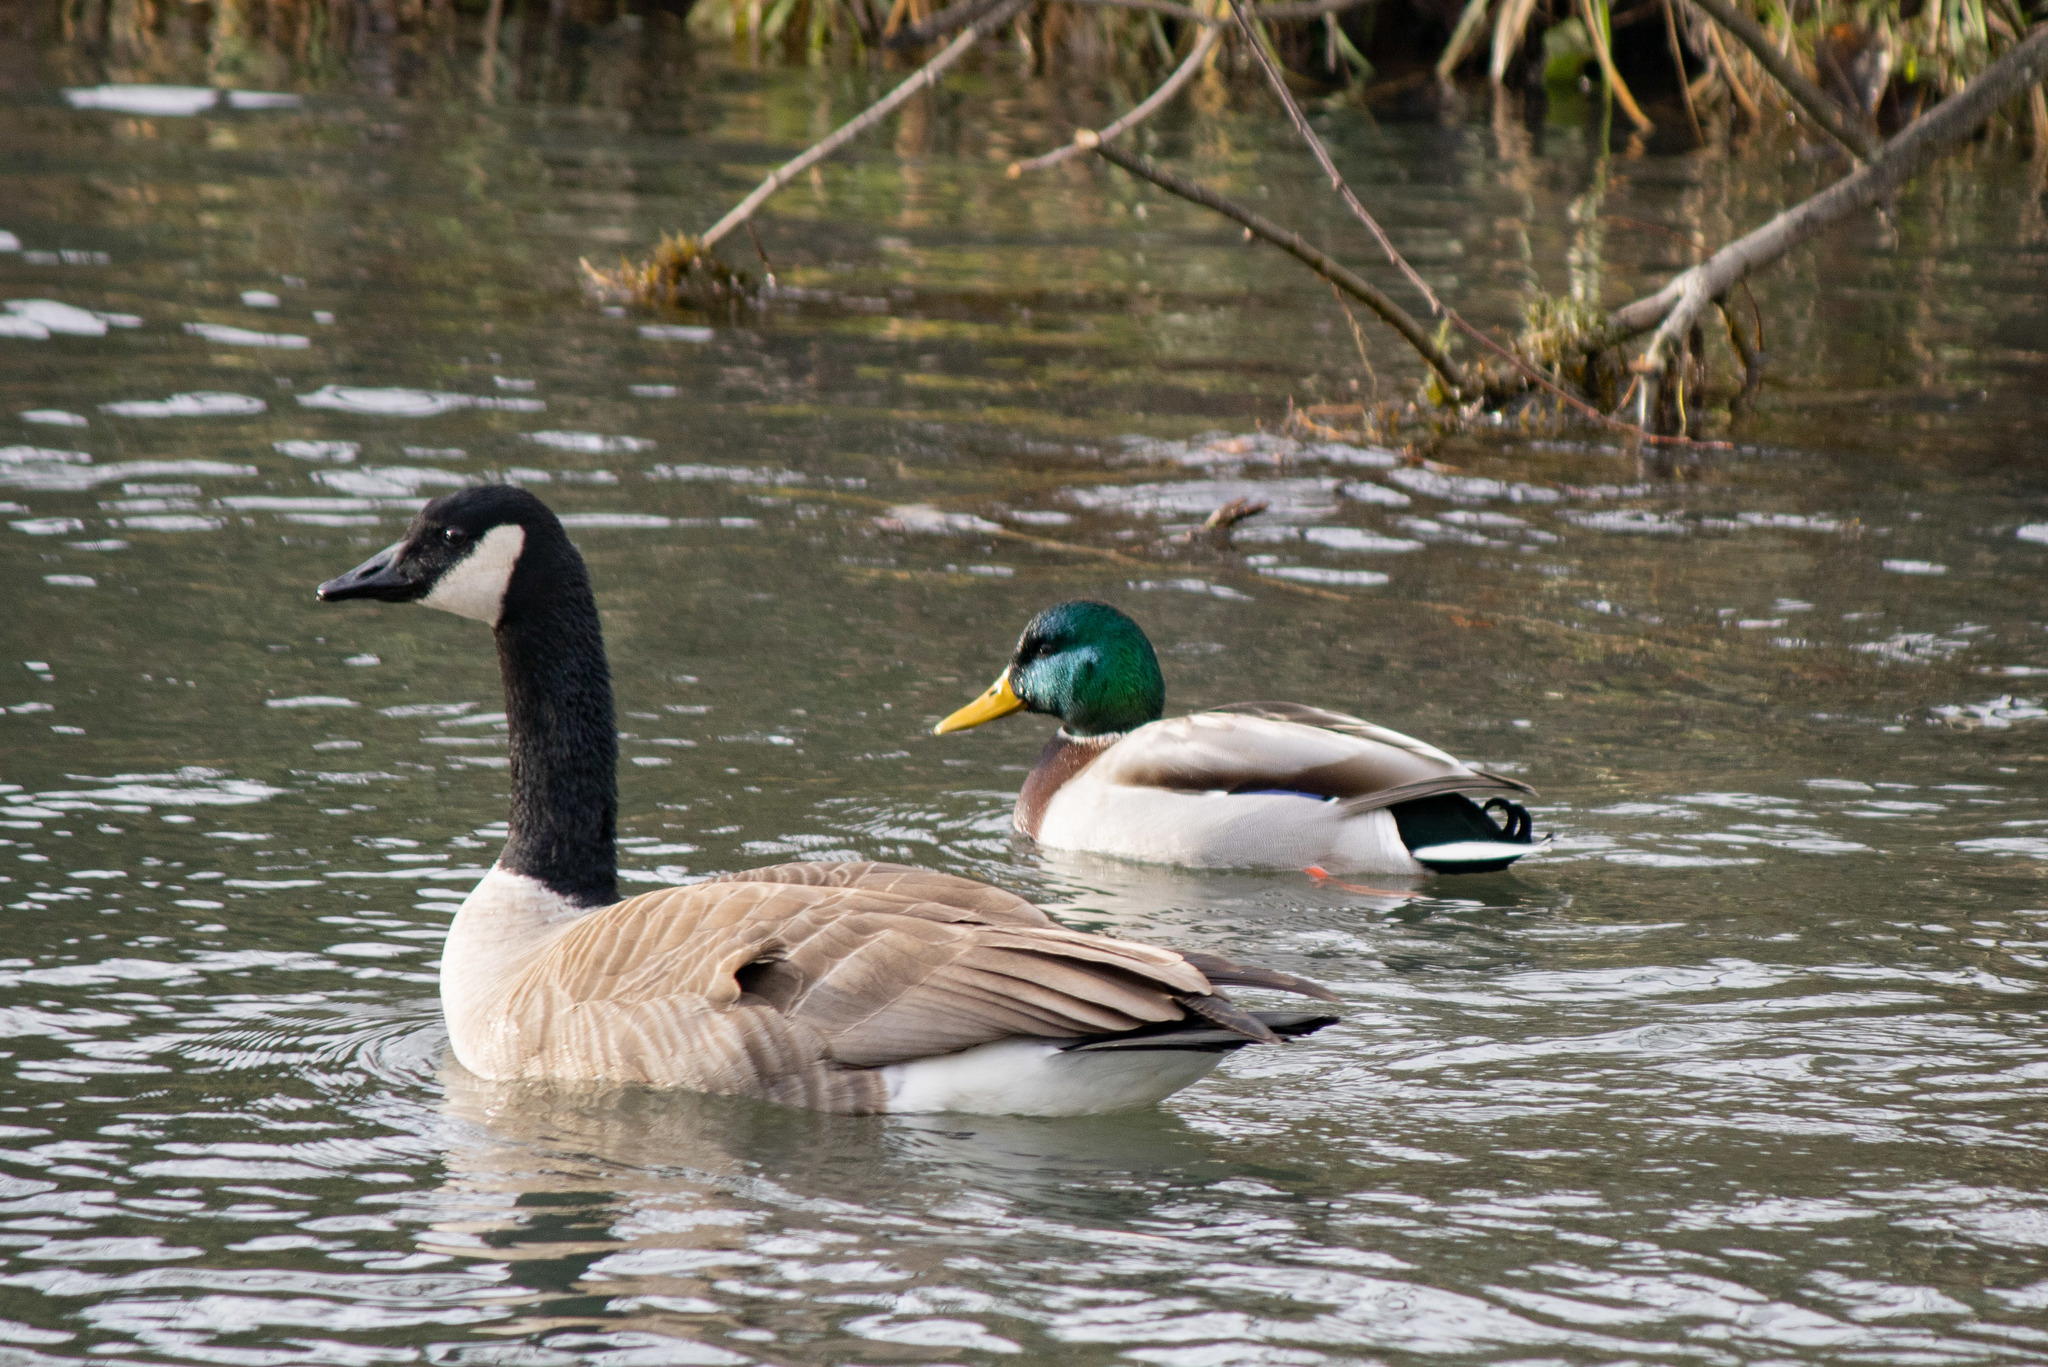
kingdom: Animalia
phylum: Chordata
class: Aves
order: Anseriformes
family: Anatidae
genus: Anas
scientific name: Anas platyrhynchos
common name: Mallard
